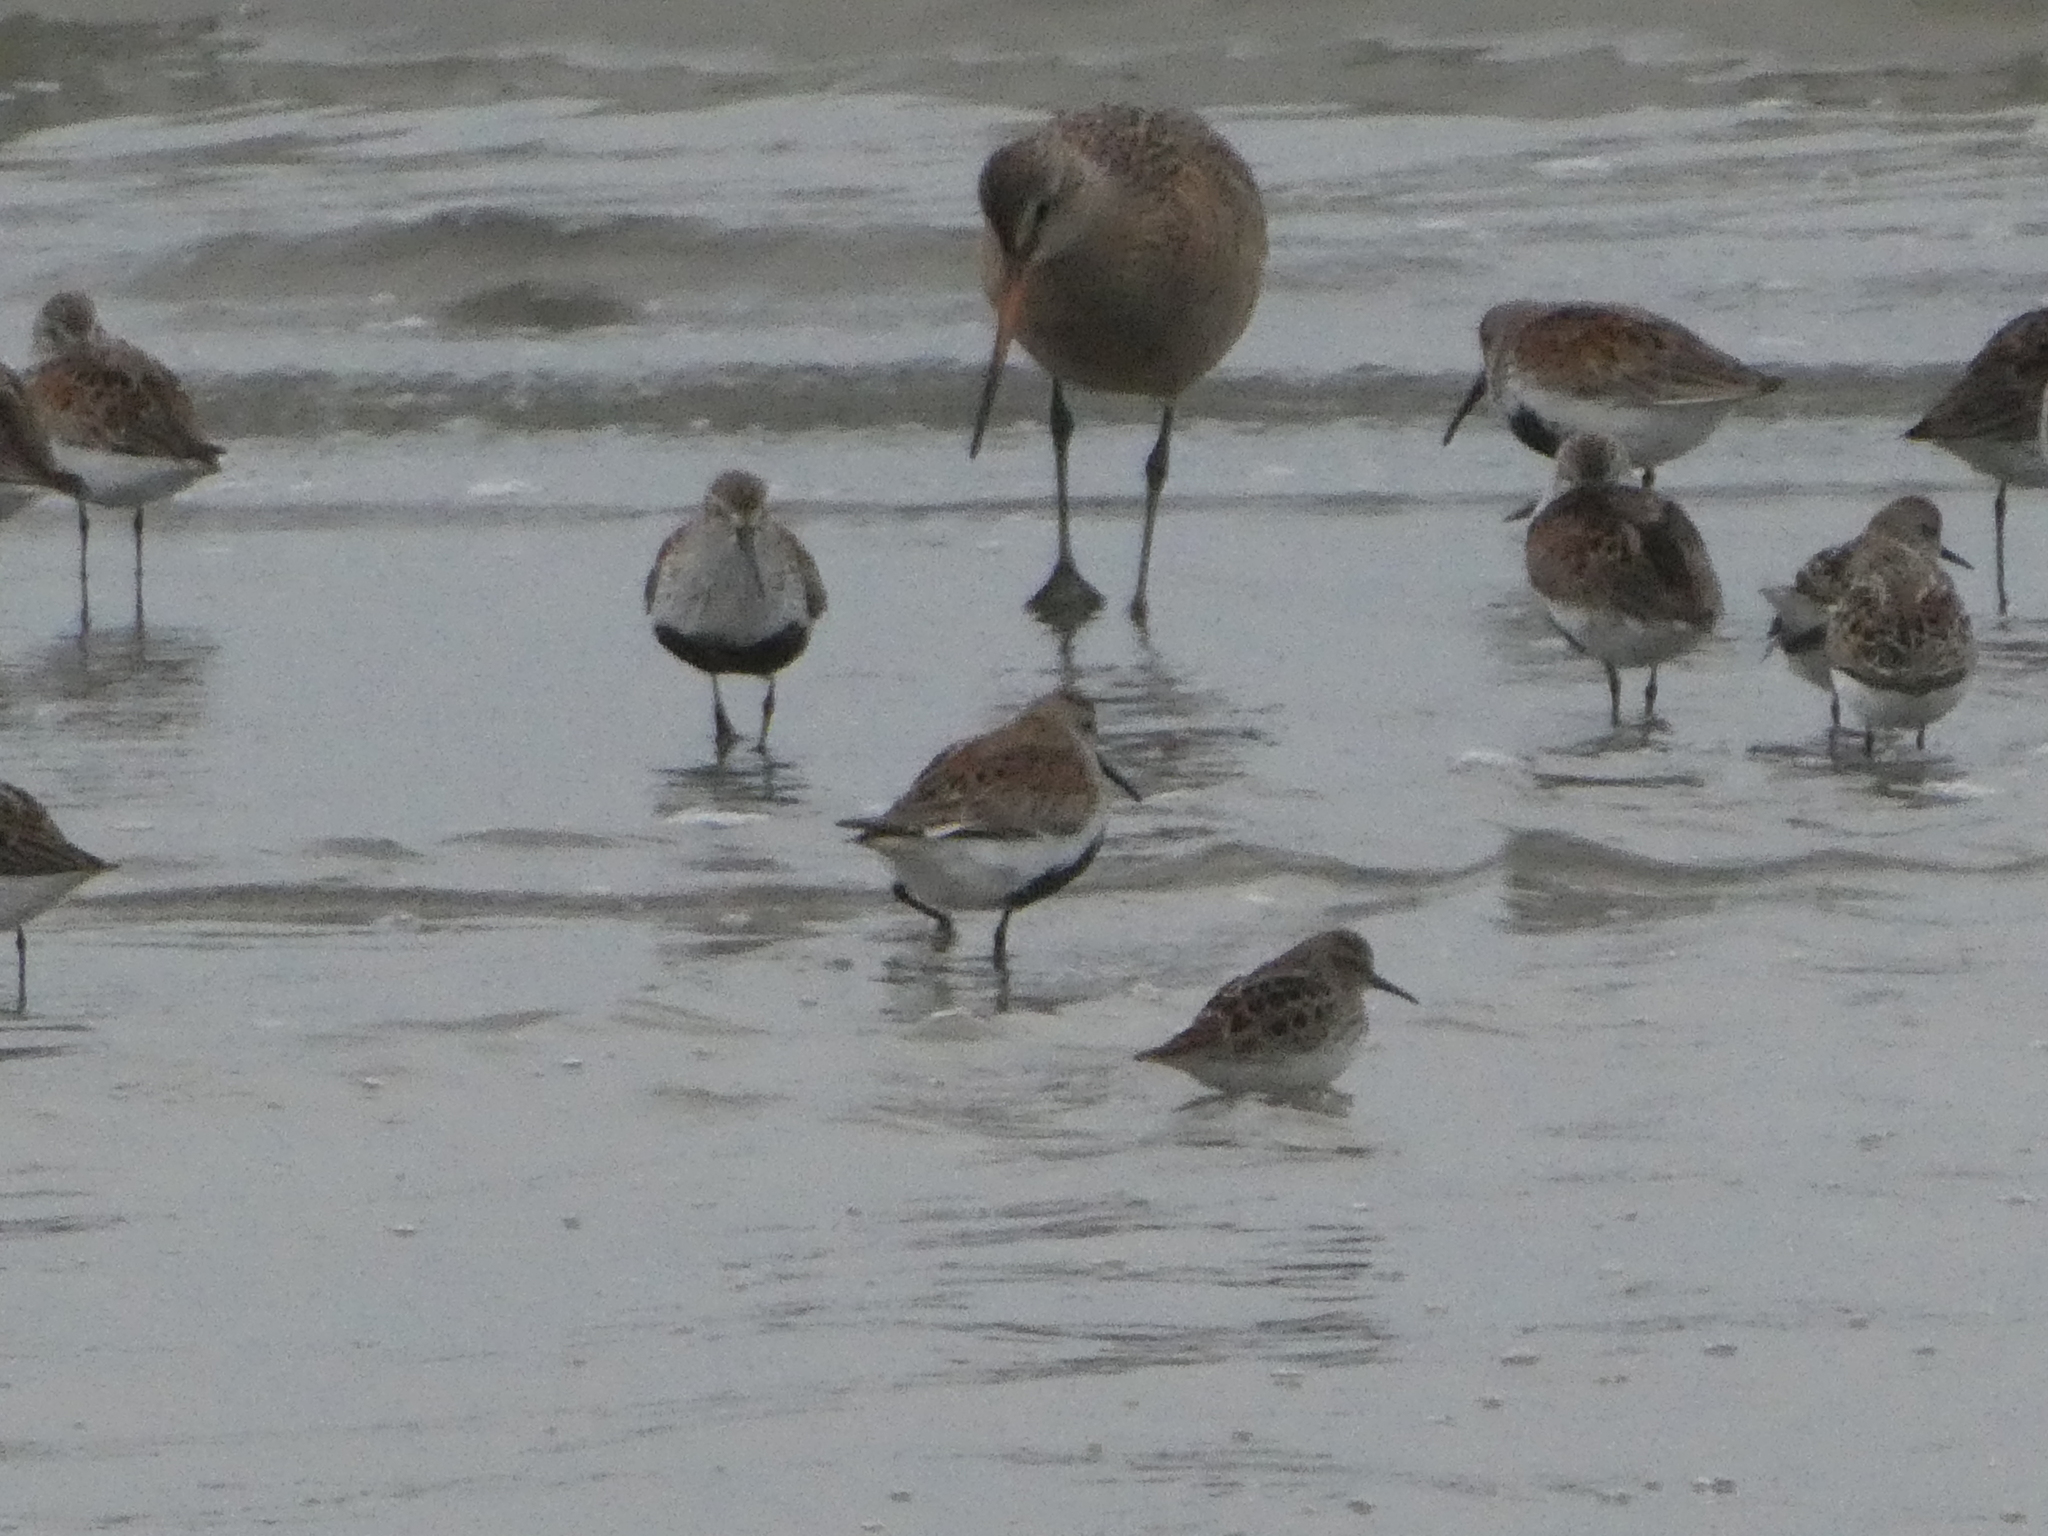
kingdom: Animalia
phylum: Chordata
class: Aves
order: Charadriiformes
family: Scolopacidae
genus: Calidris
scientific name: Calidris alpina
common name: Dunlin
